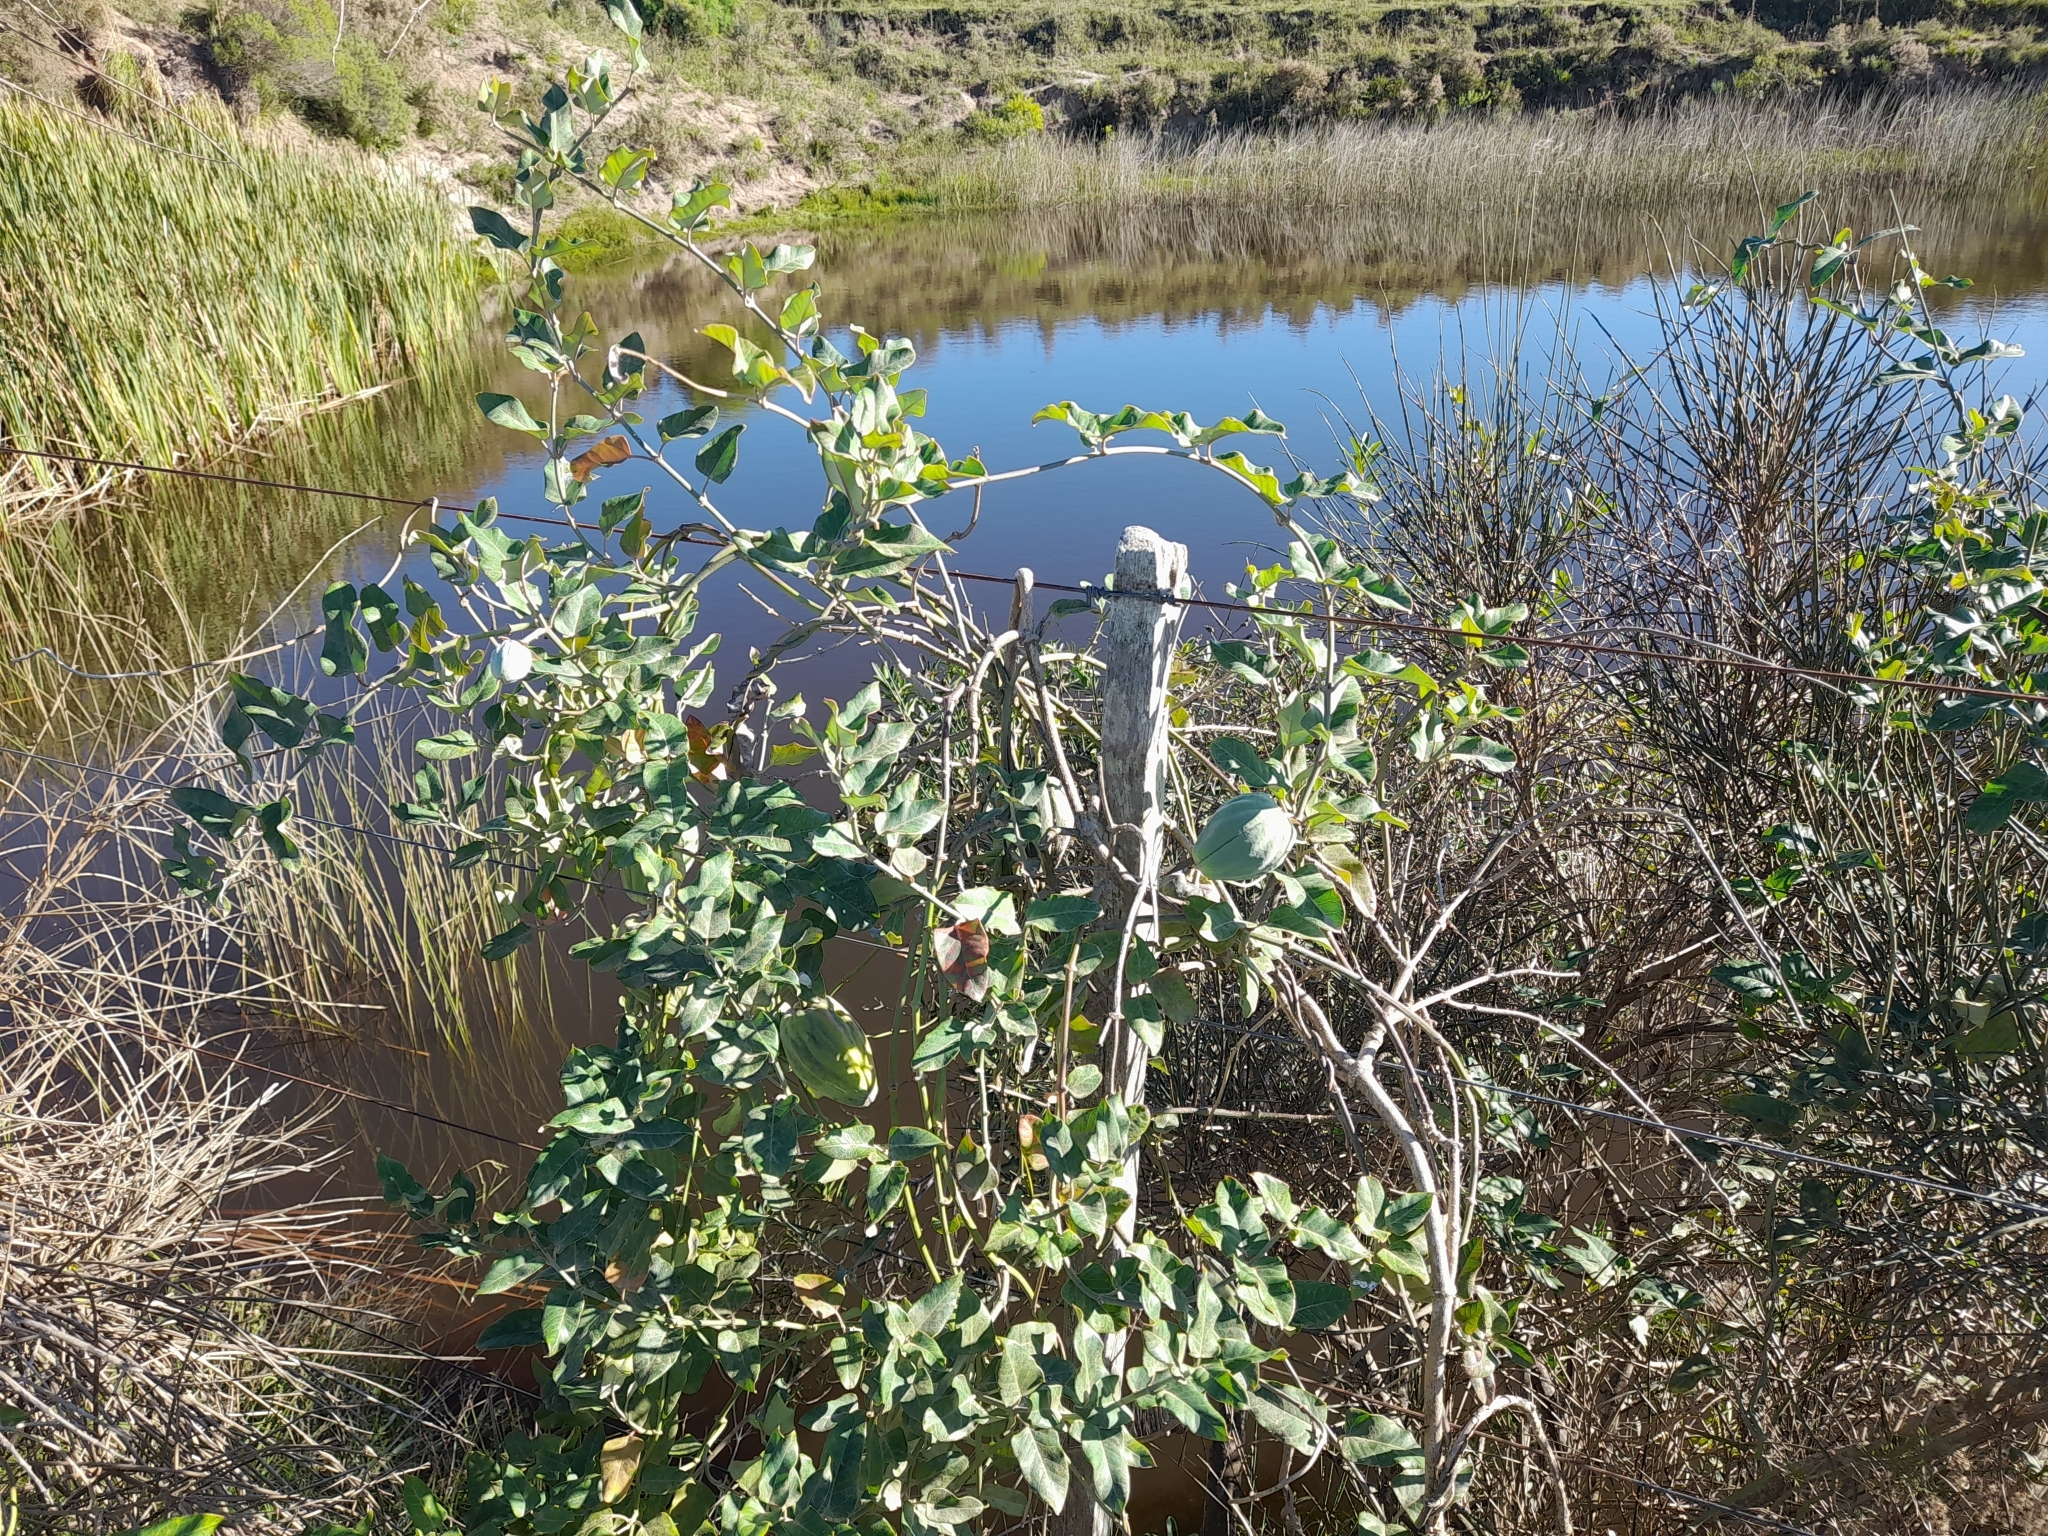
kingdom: Plantae
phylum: Tracheophyta
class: Magnoliopsida
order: Gentianales
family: Apocynaceae
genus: Araujia
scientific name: Araujia sericifera
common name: White bladderflower
